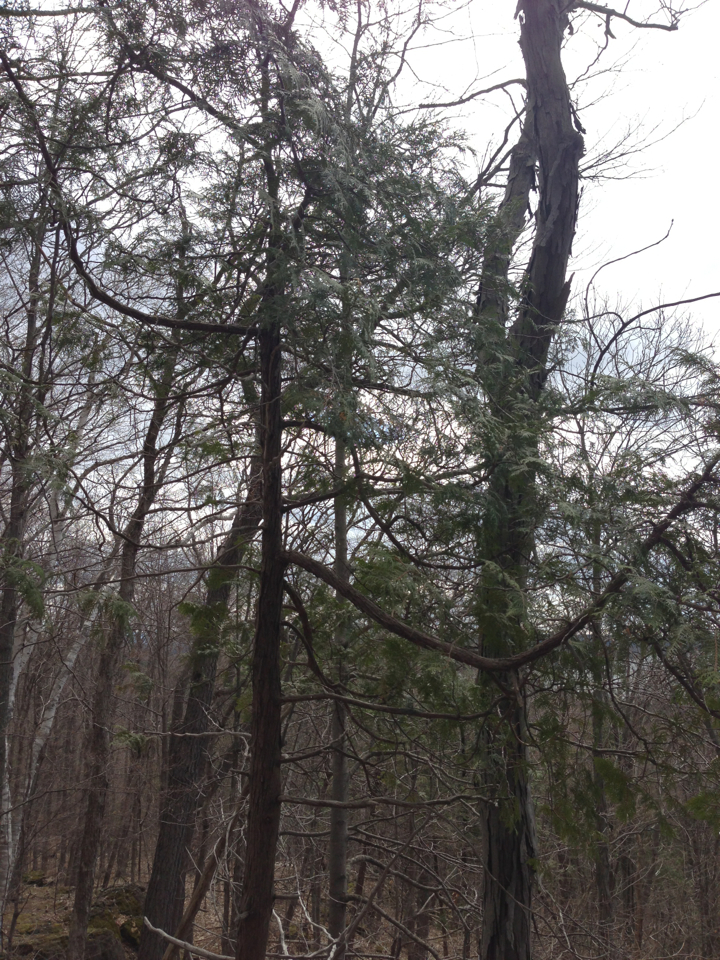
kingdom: Plantae
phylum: Tracheophyta
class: Pinopsida
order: Pinales
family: Cupressaceae
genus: Thuja
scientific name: Thuja occidentalis
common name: Northern white-cedar
